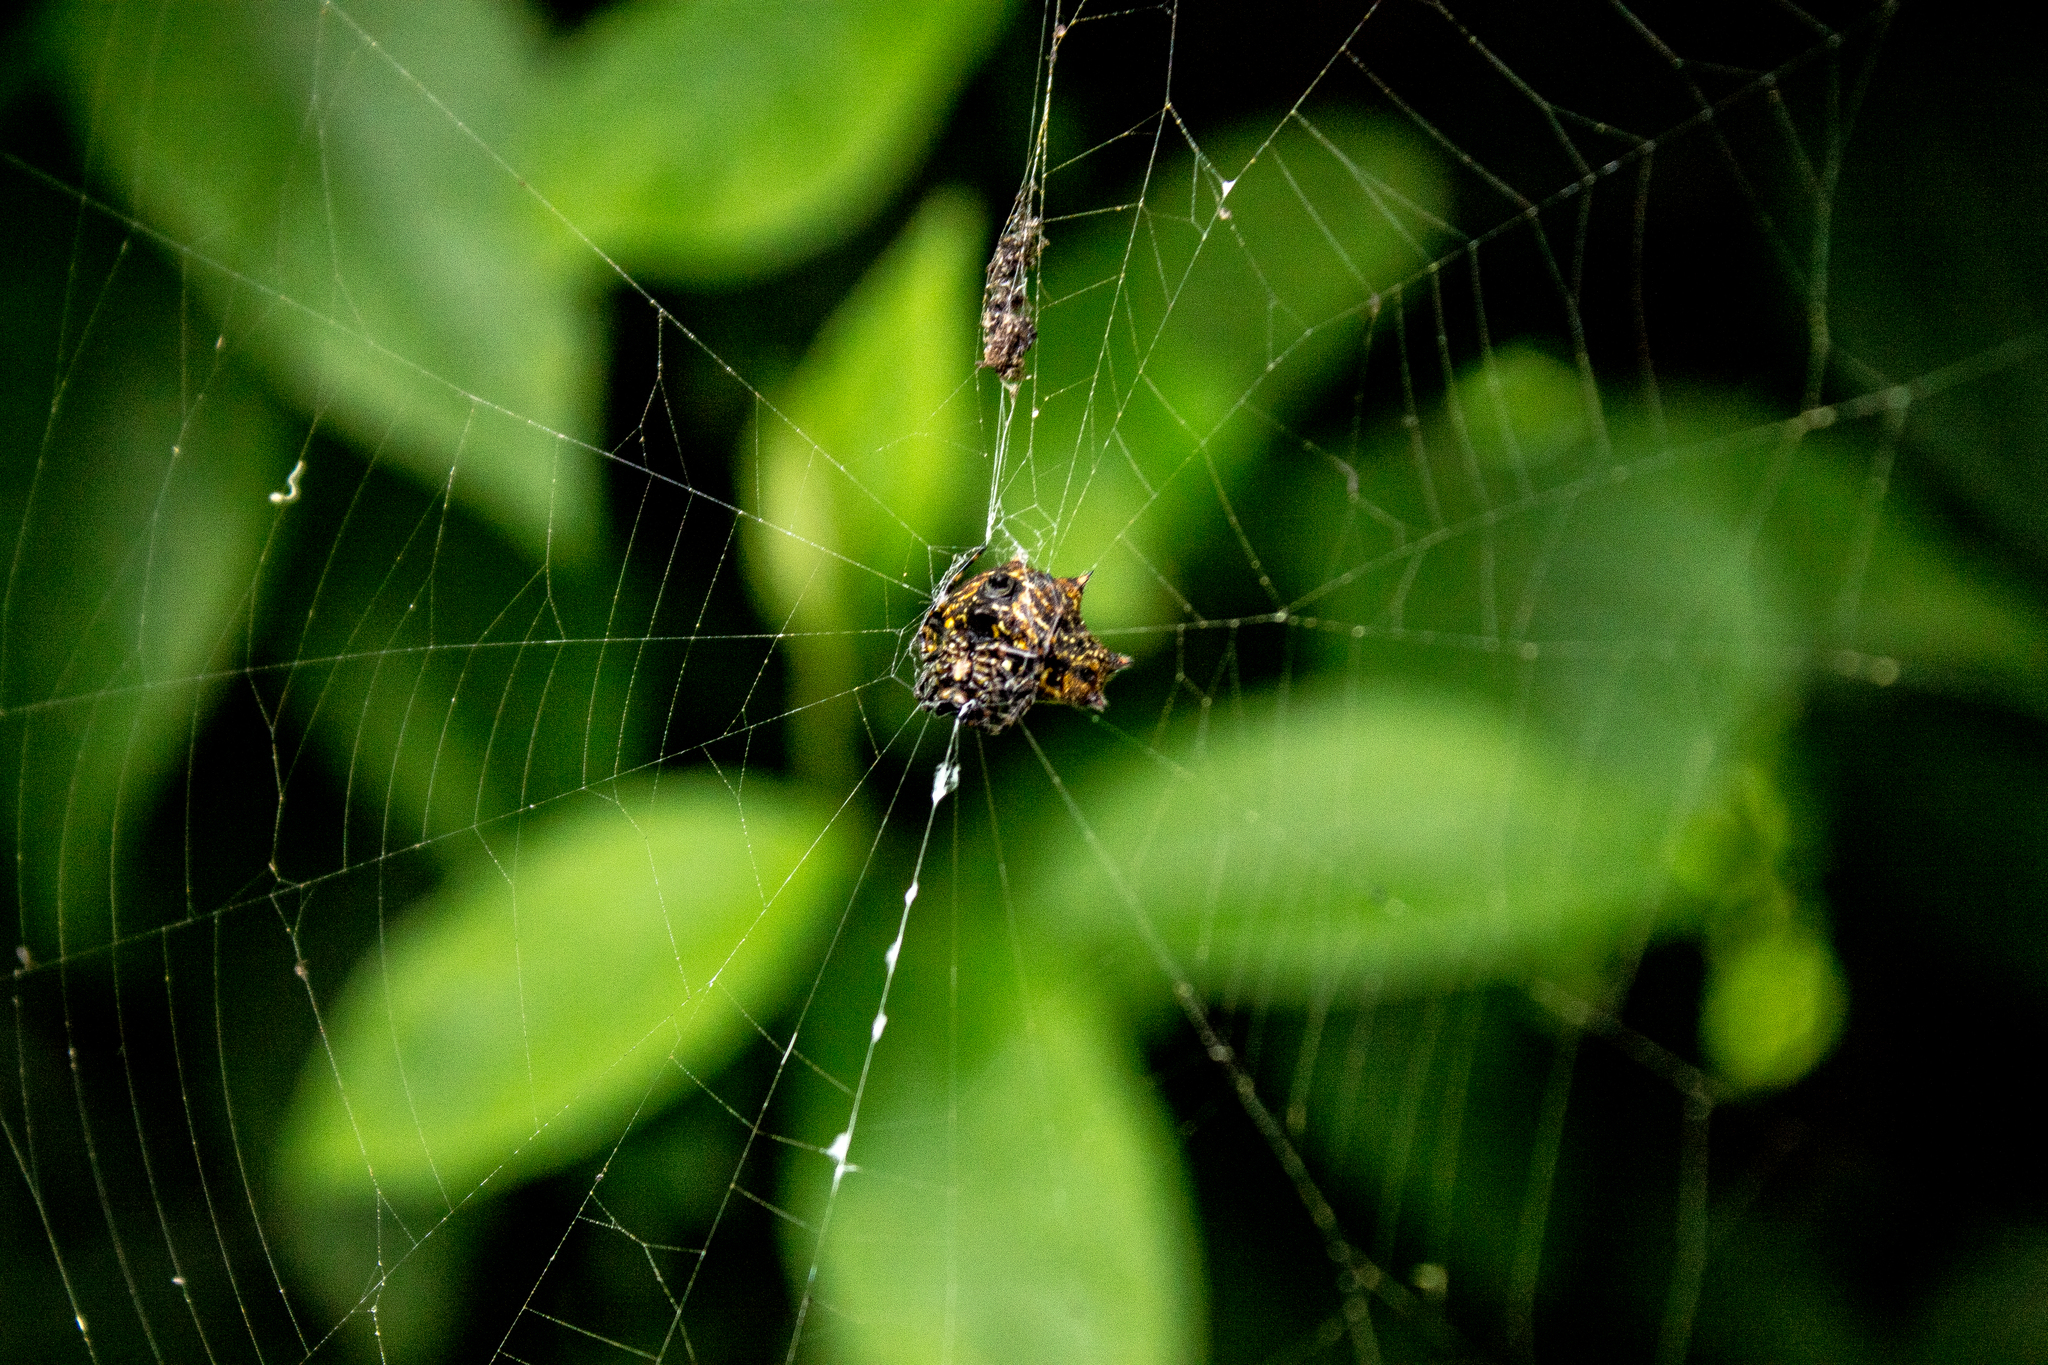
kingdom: Animalia
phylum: Arthropoda
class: Arachnida
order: Araneae
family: Araneidae
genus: Gasteracantha
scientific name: Gasteracantha cancriformis
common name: Orb weavers
